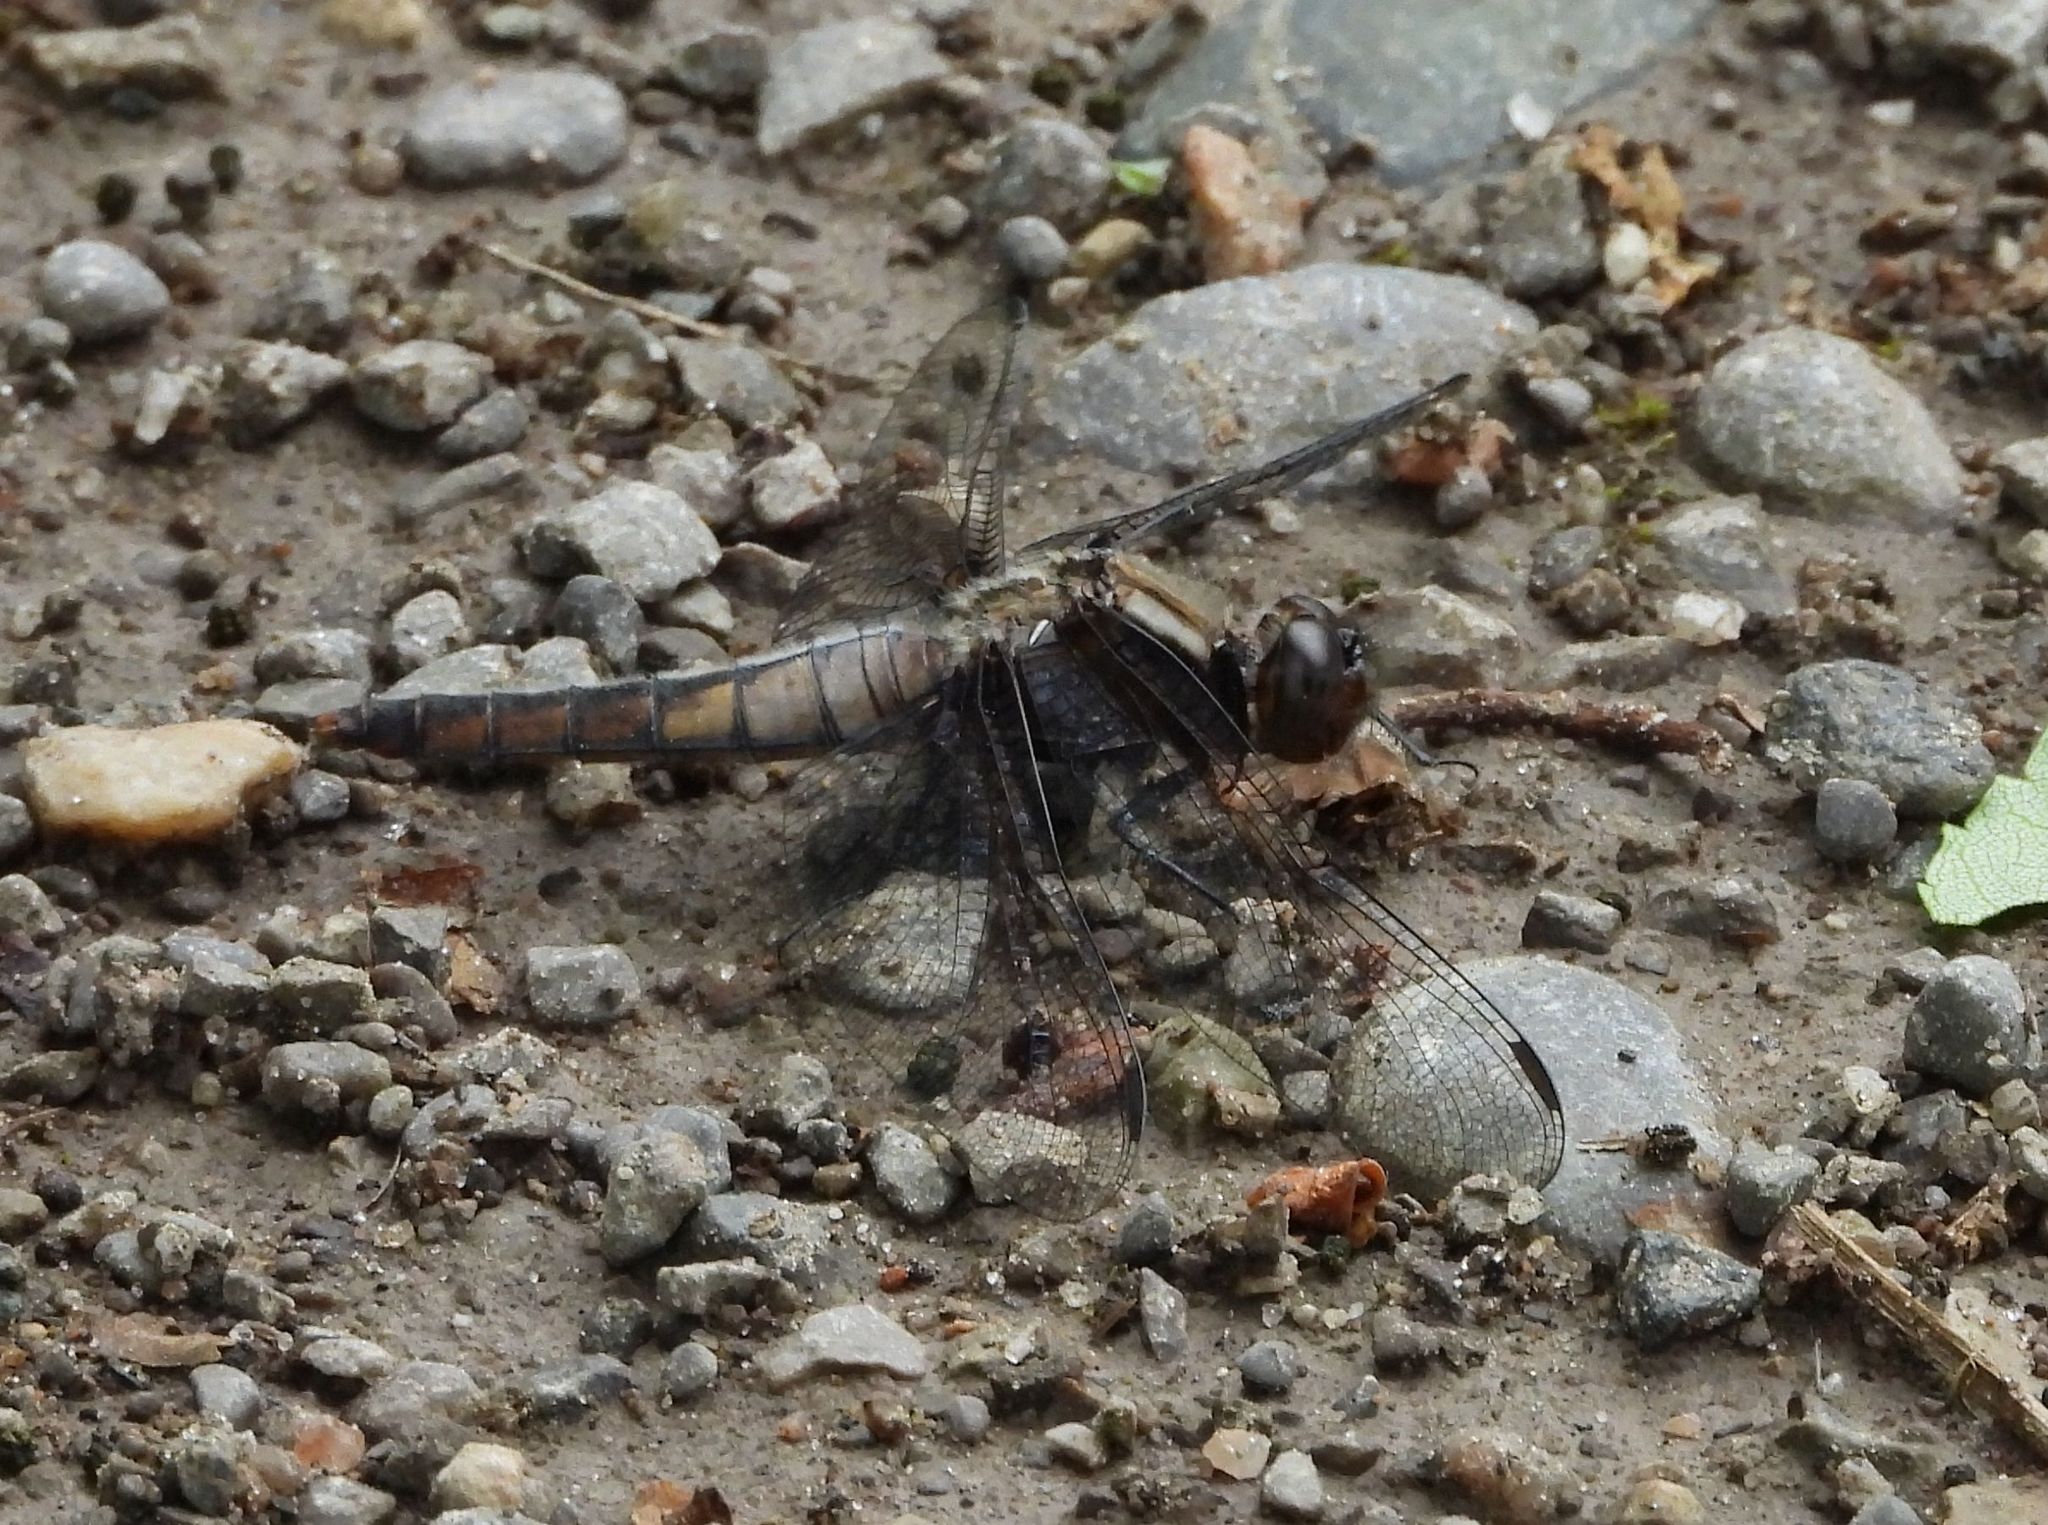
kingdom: Animalia
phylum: Arthropoda
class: Insecta
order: Odonata
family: Libellulidae
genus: Ladona
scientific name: Ladona julia
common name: Chalk-fronted corporal
